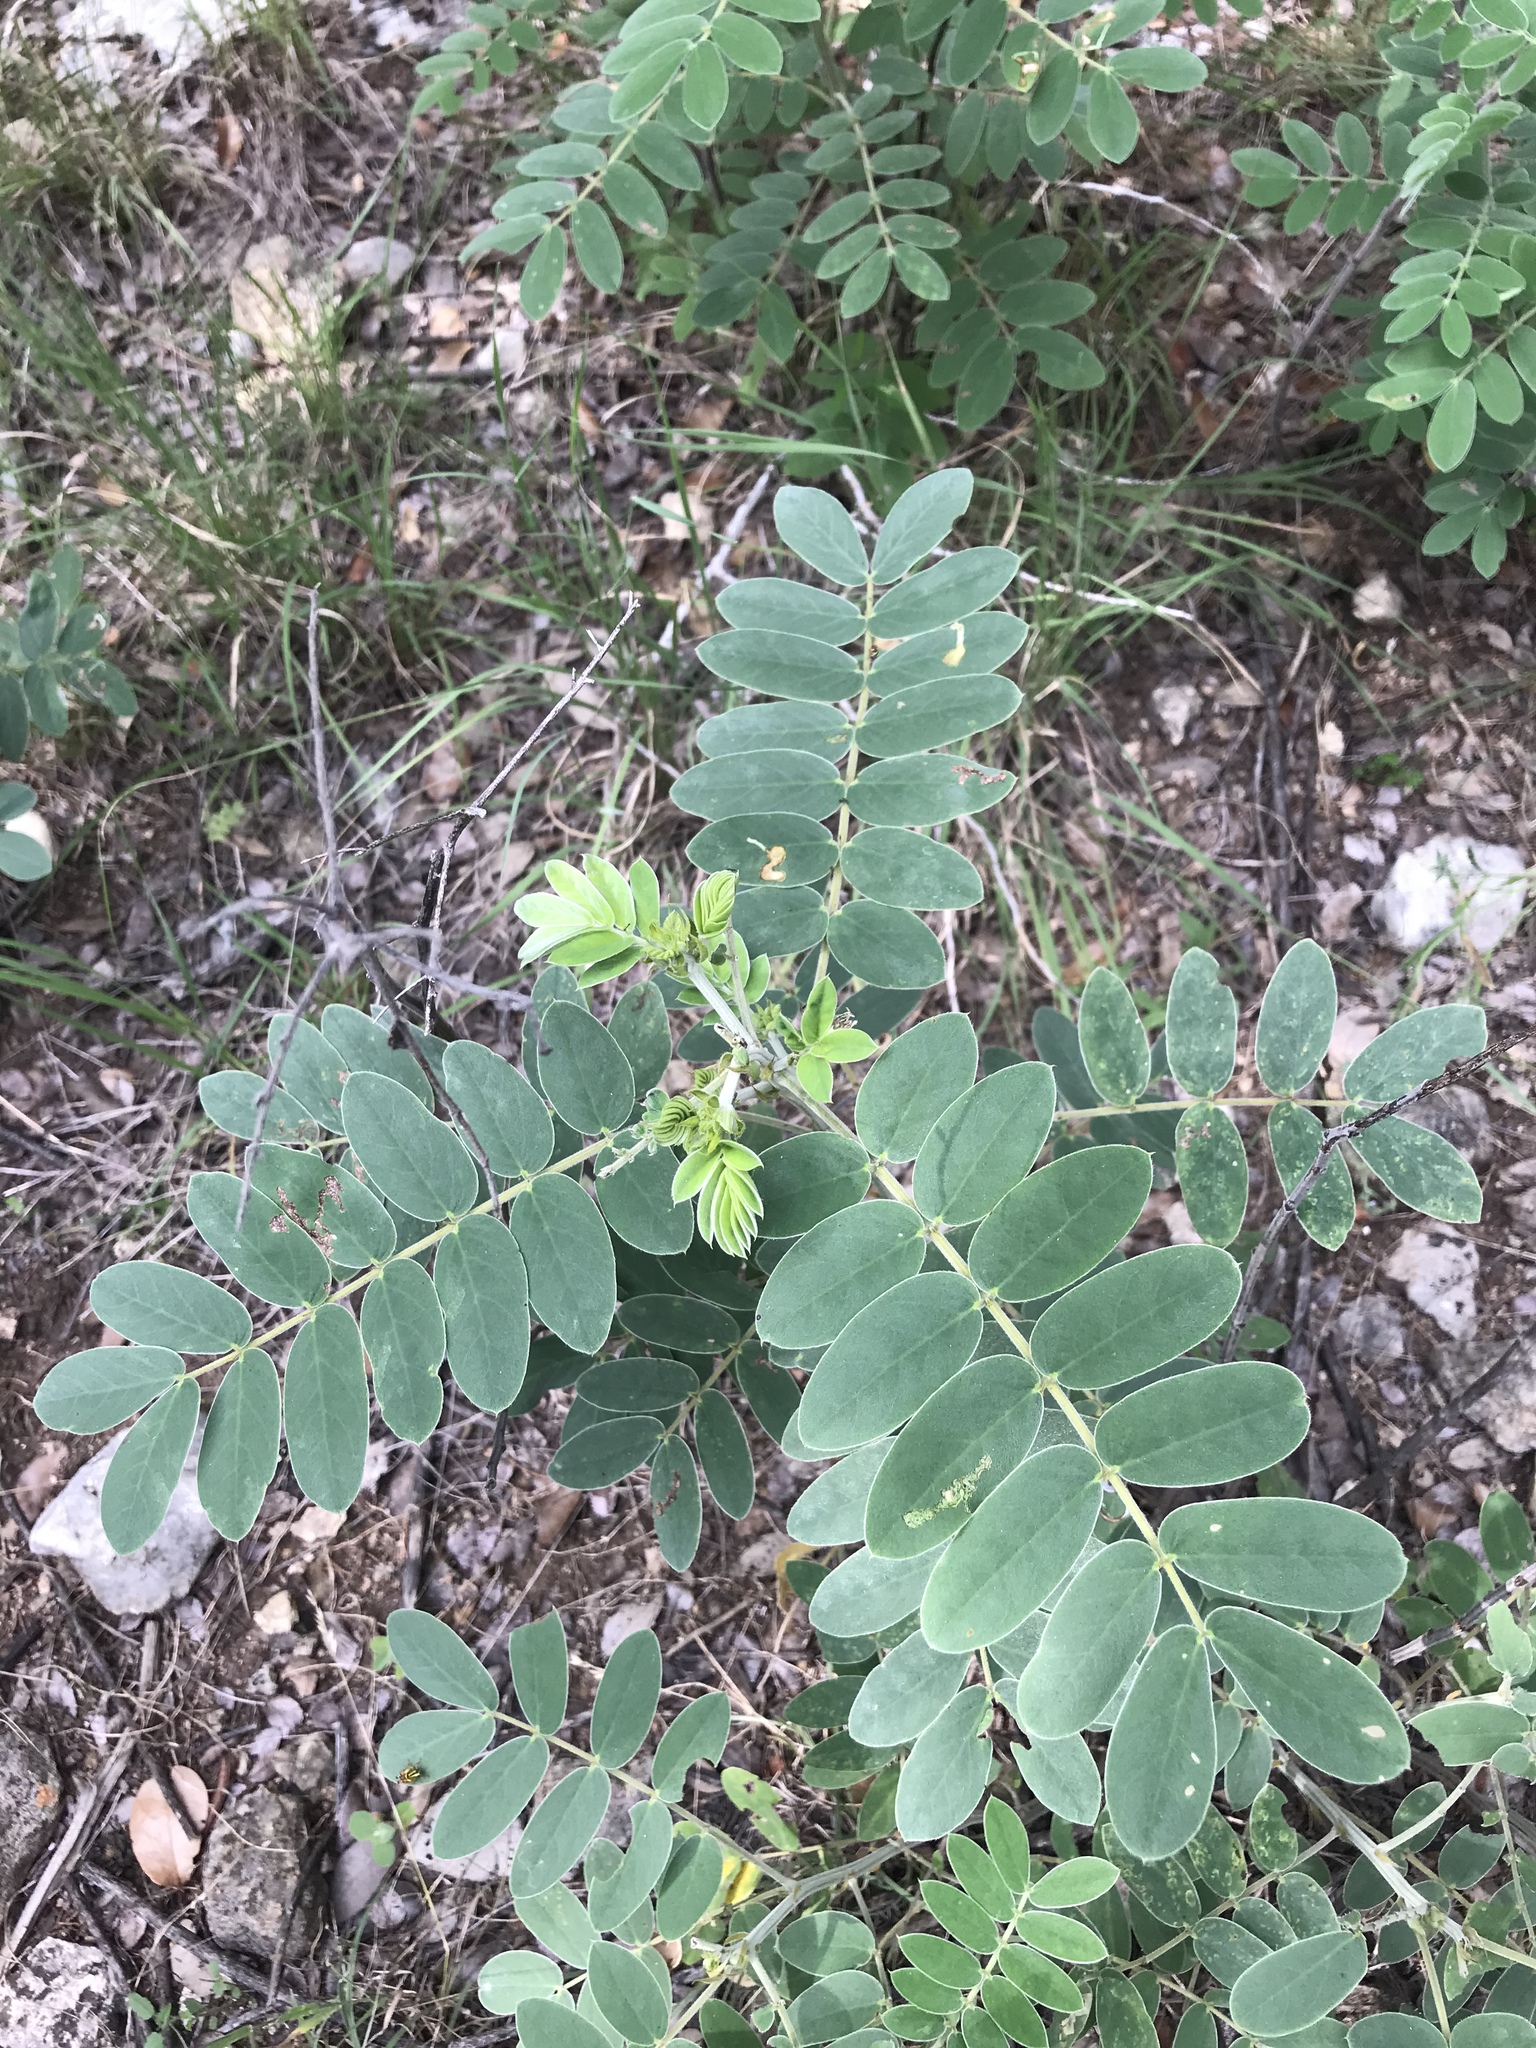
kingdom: Plantae
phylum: Tracheophyta
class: Magnoliopsida
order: Fabales
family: Fabaceae
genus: Senna
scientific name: Senna lindheimeriana
